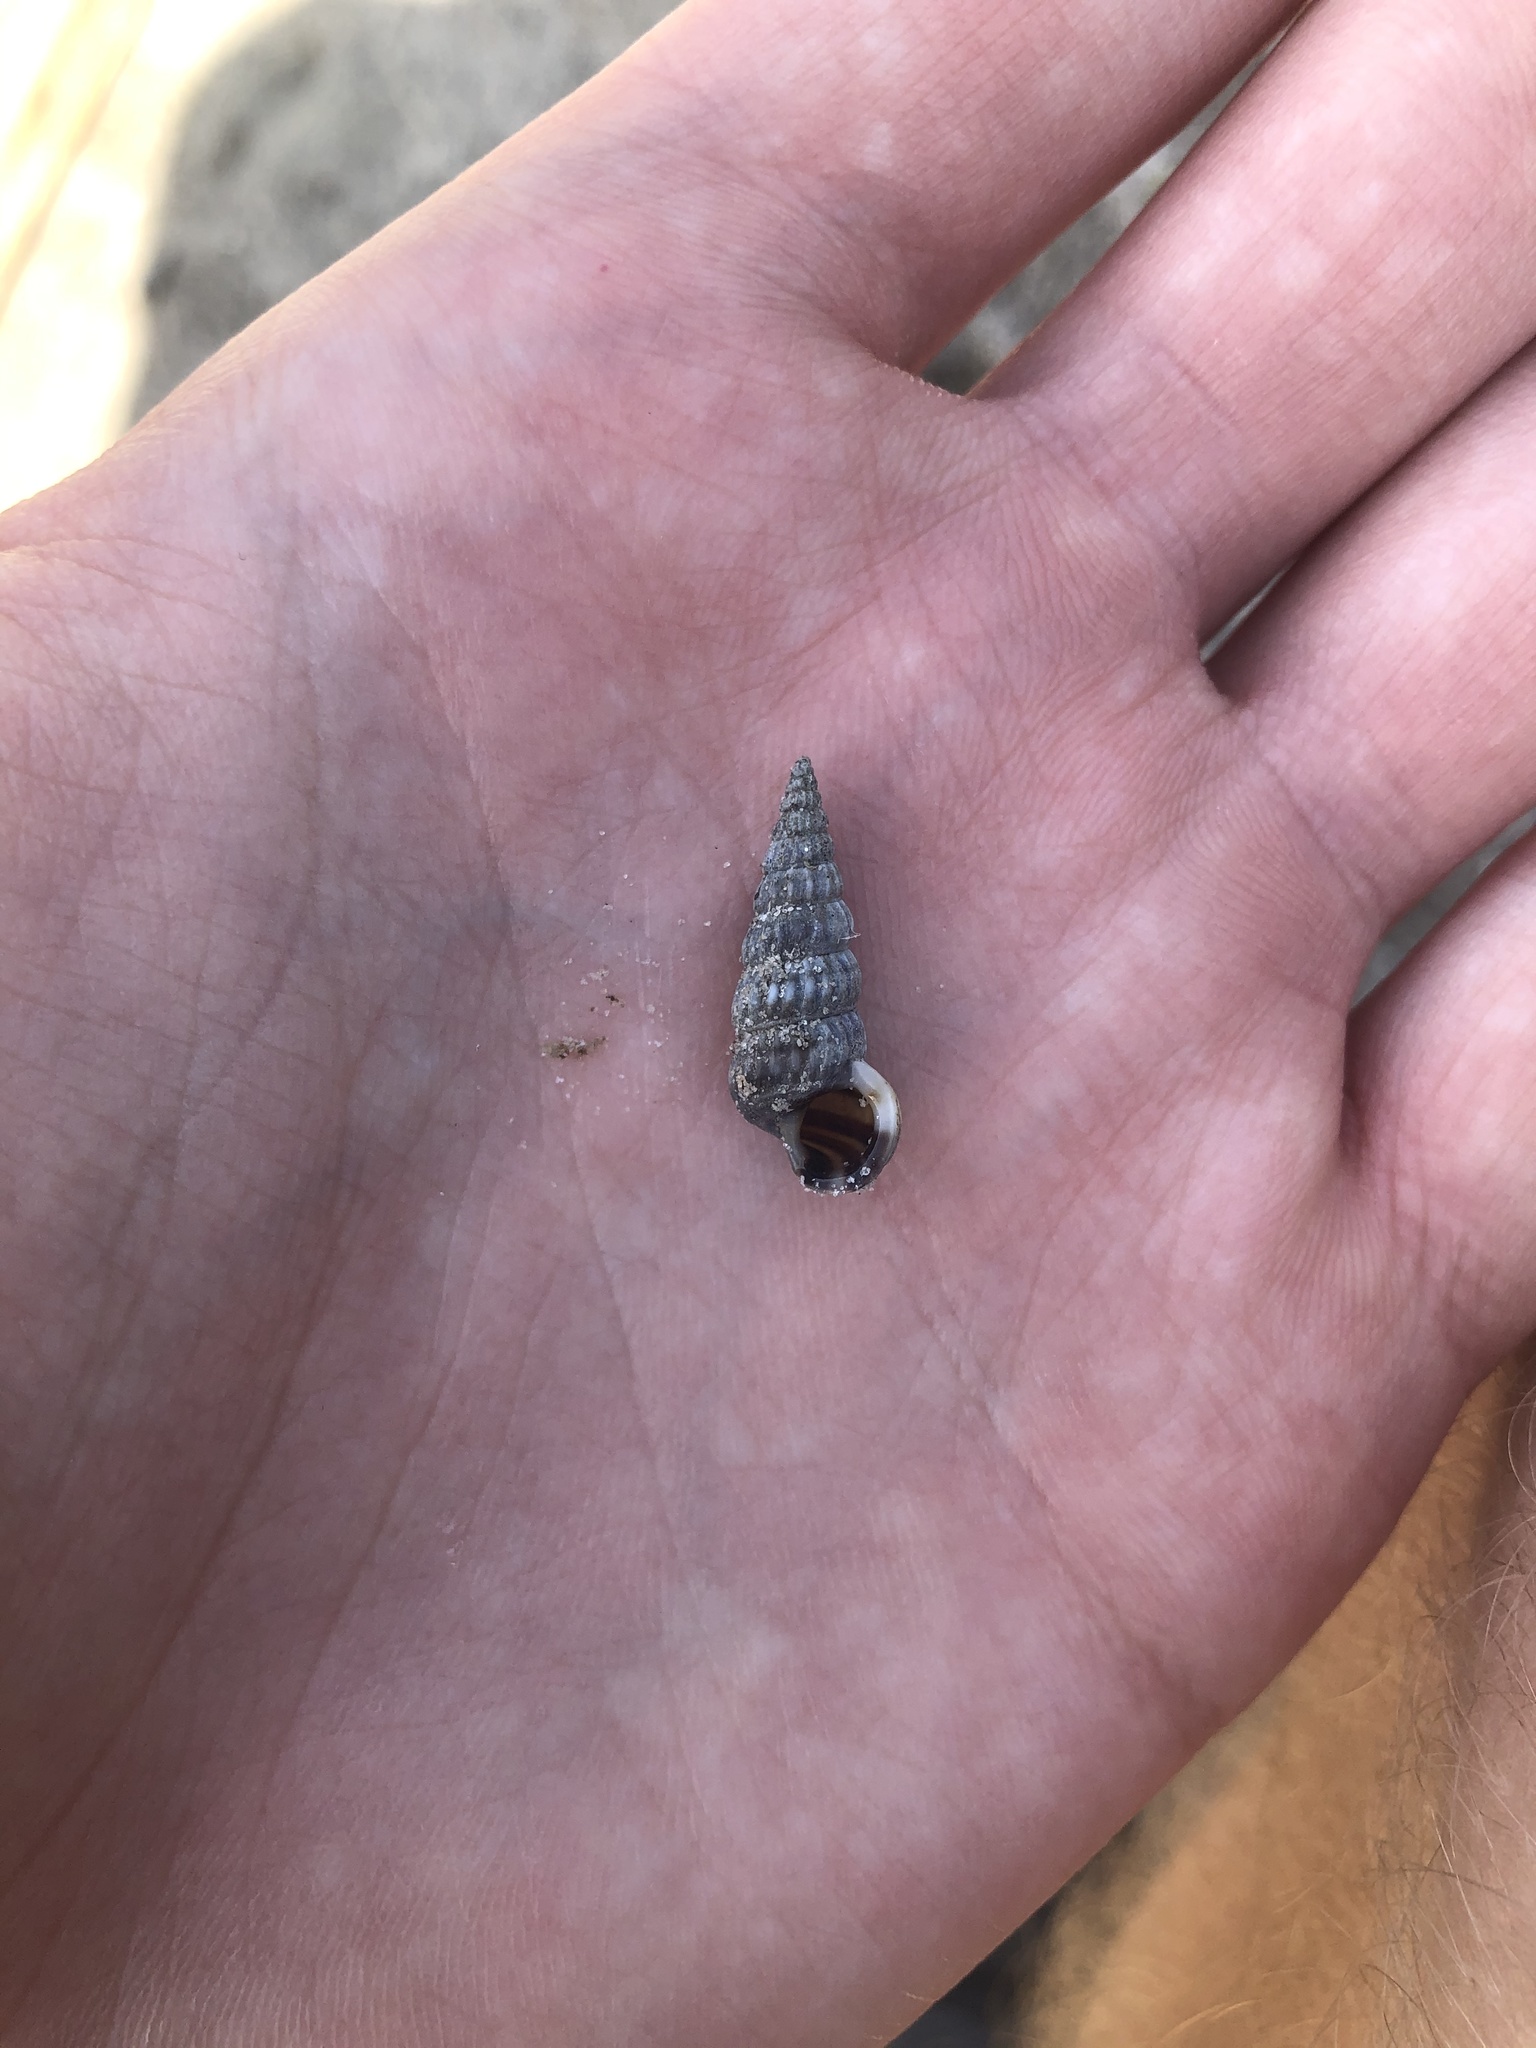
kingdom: Animalia
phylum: Mollusca
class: Gastropoda
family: Potamididae
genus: Cerithideopsis
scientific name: Cerithideopsis scalariformis
